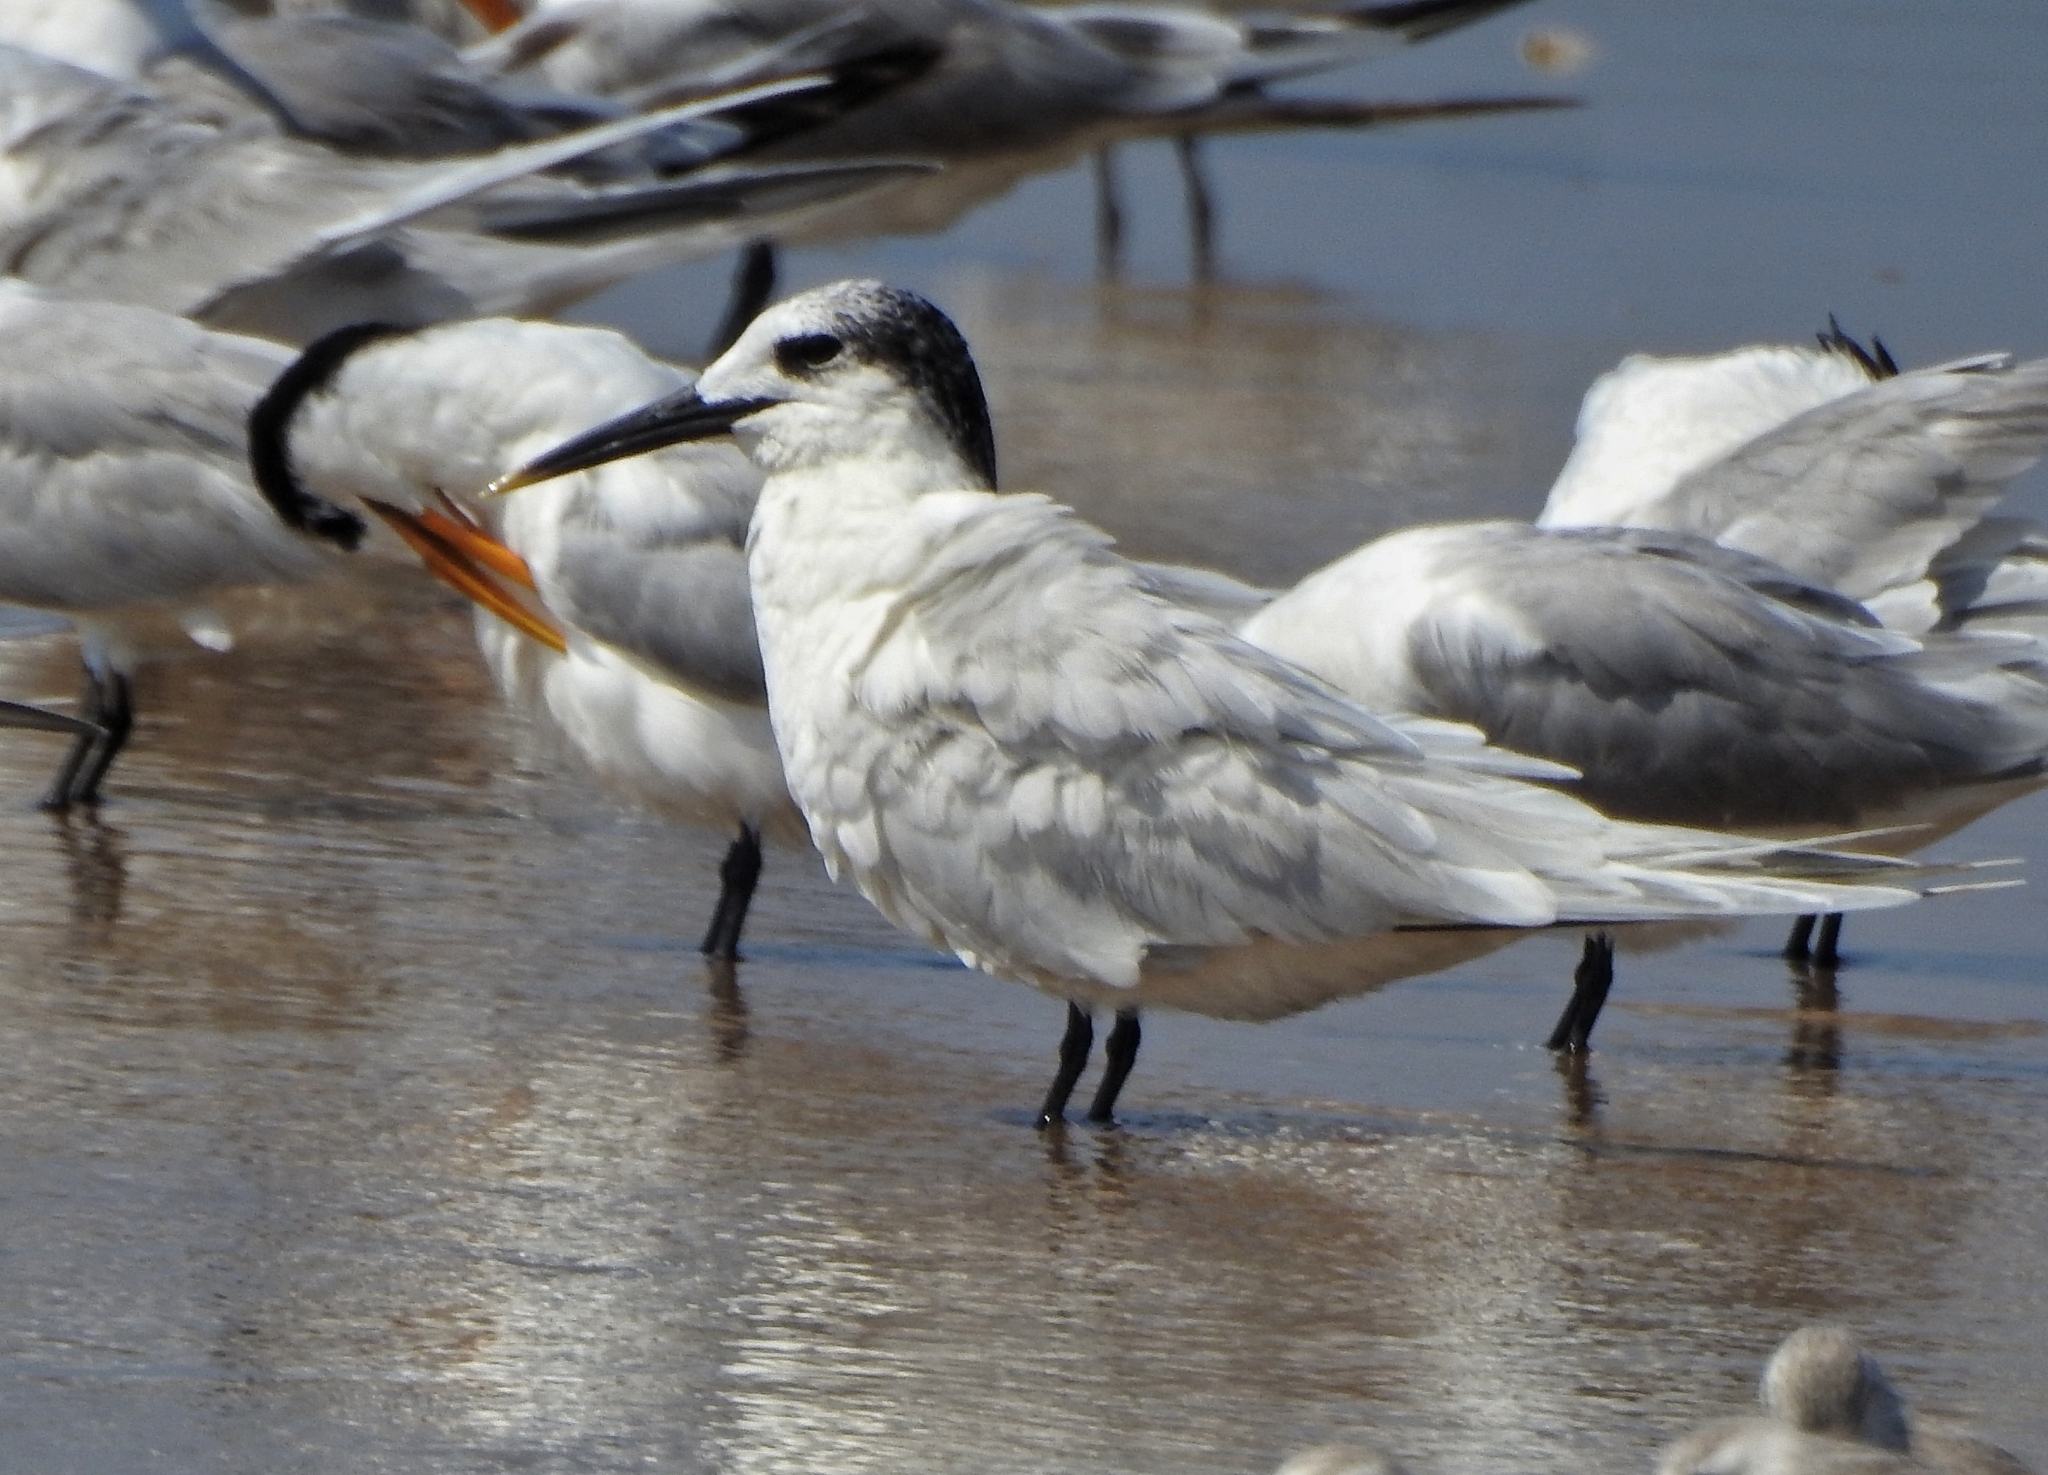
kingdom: Animalia
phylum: Chordata
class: Aves
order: Charadriiformes
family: Laridae
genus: Thalasseus
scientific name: Thalasseus sandvicensis
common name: Sandwich tern
